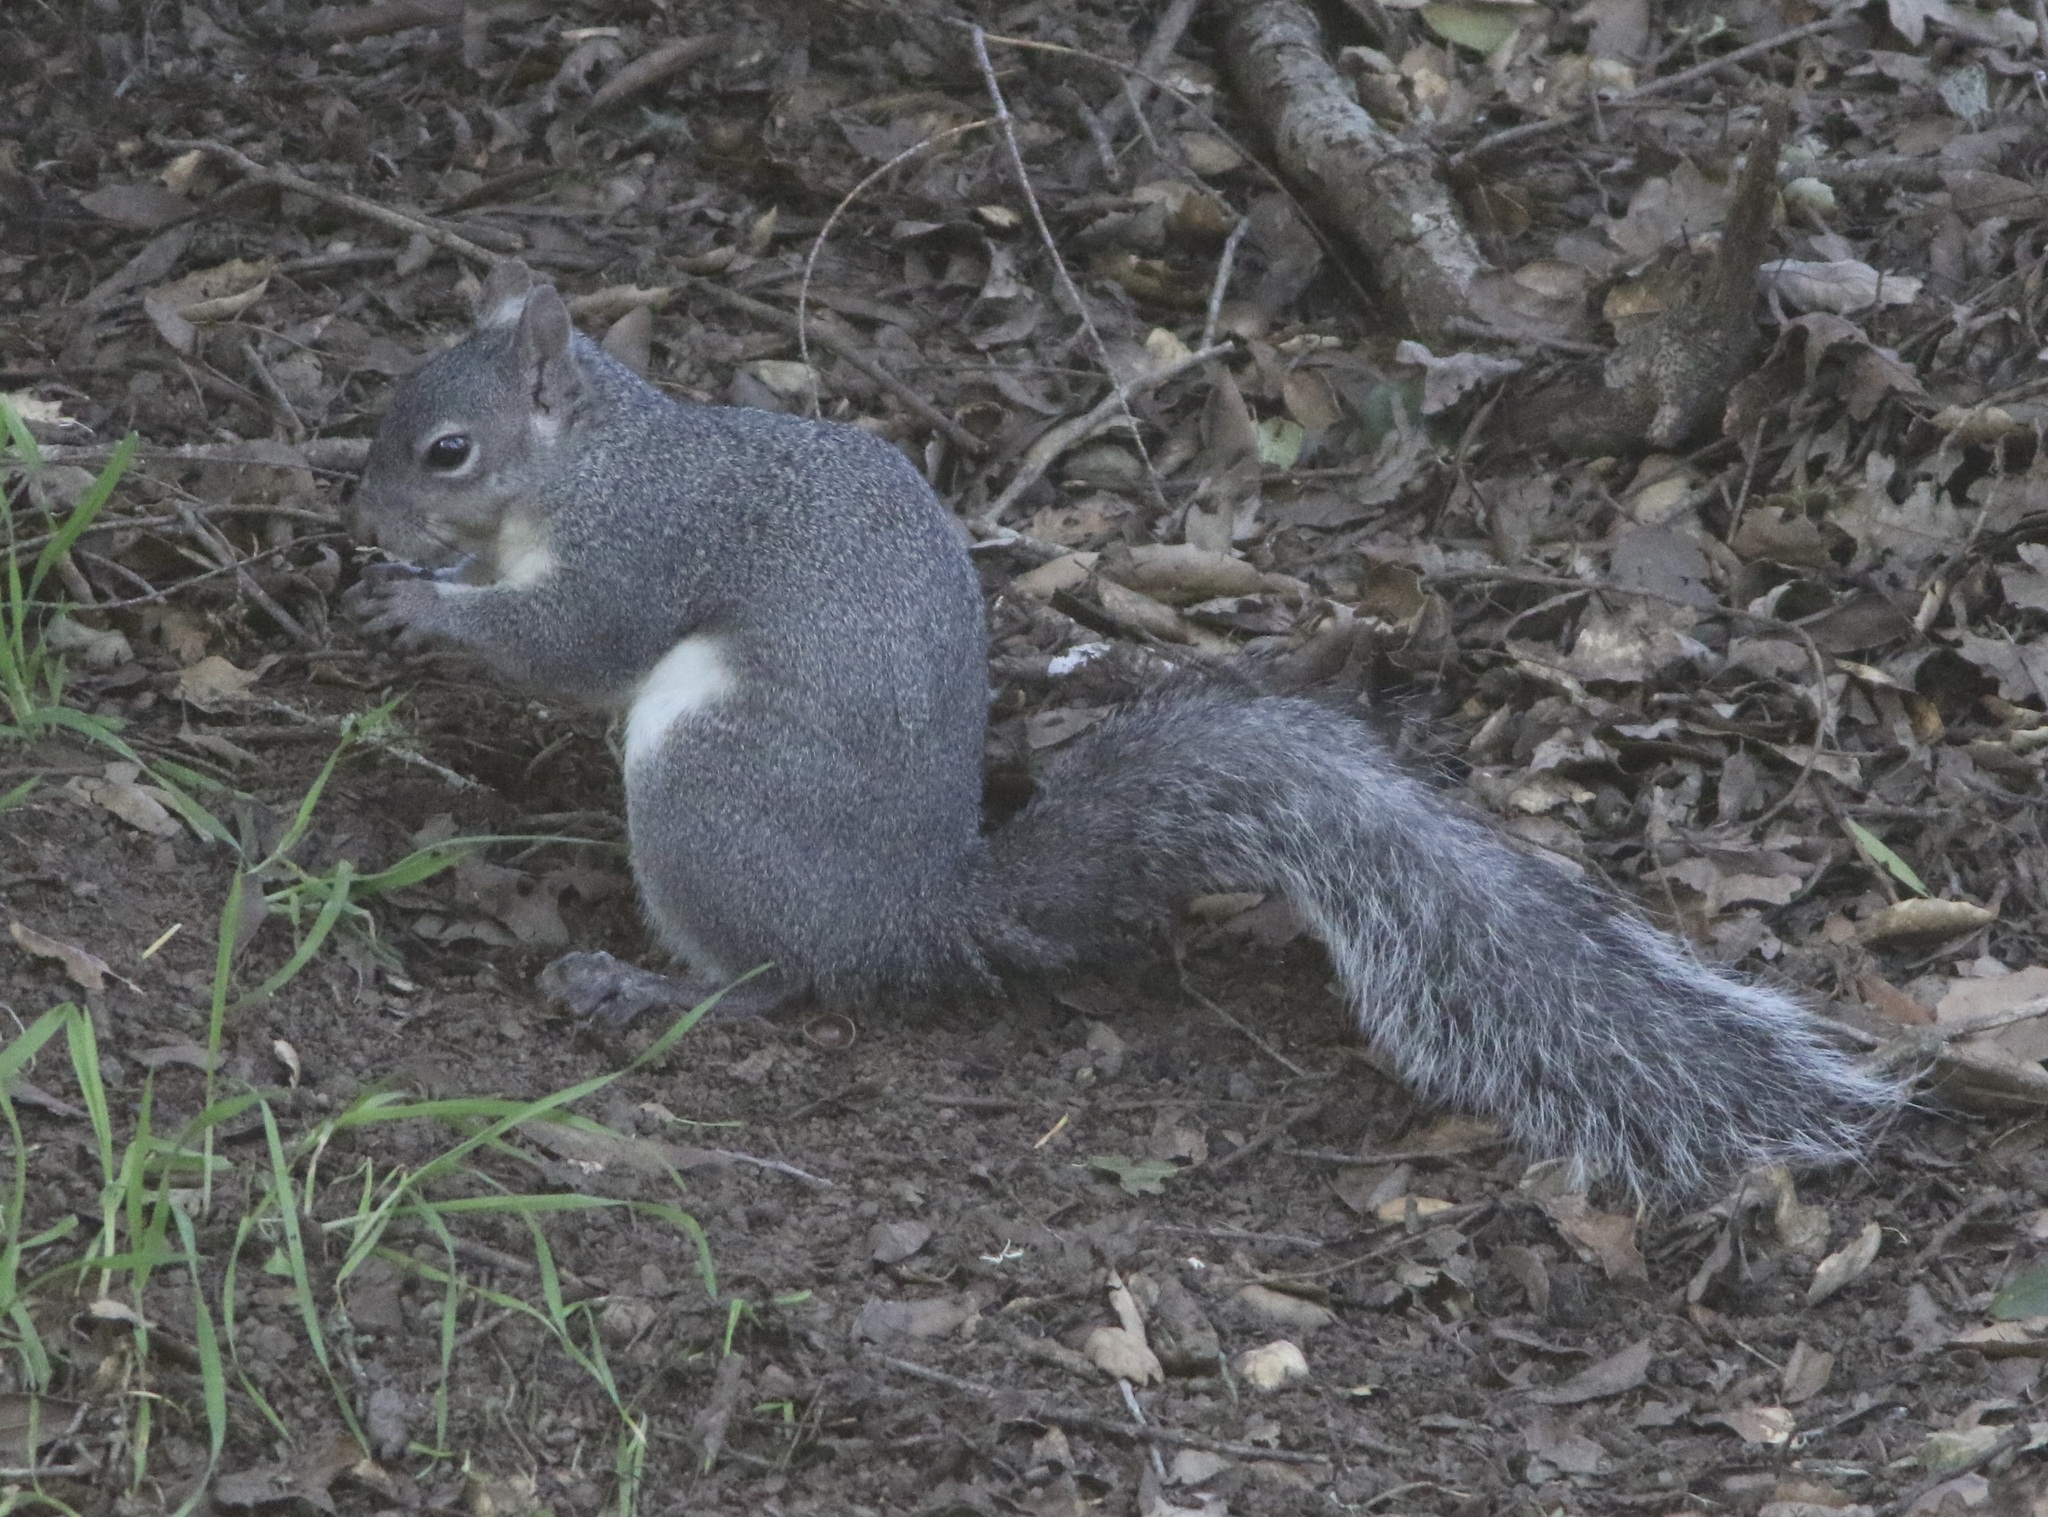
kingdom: Animalia
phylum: Chordata
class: Mammalia
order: Rodentia
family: Sciuridae
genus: Sciurus
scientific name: Sciurus griseus
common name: Western gray squirrel
